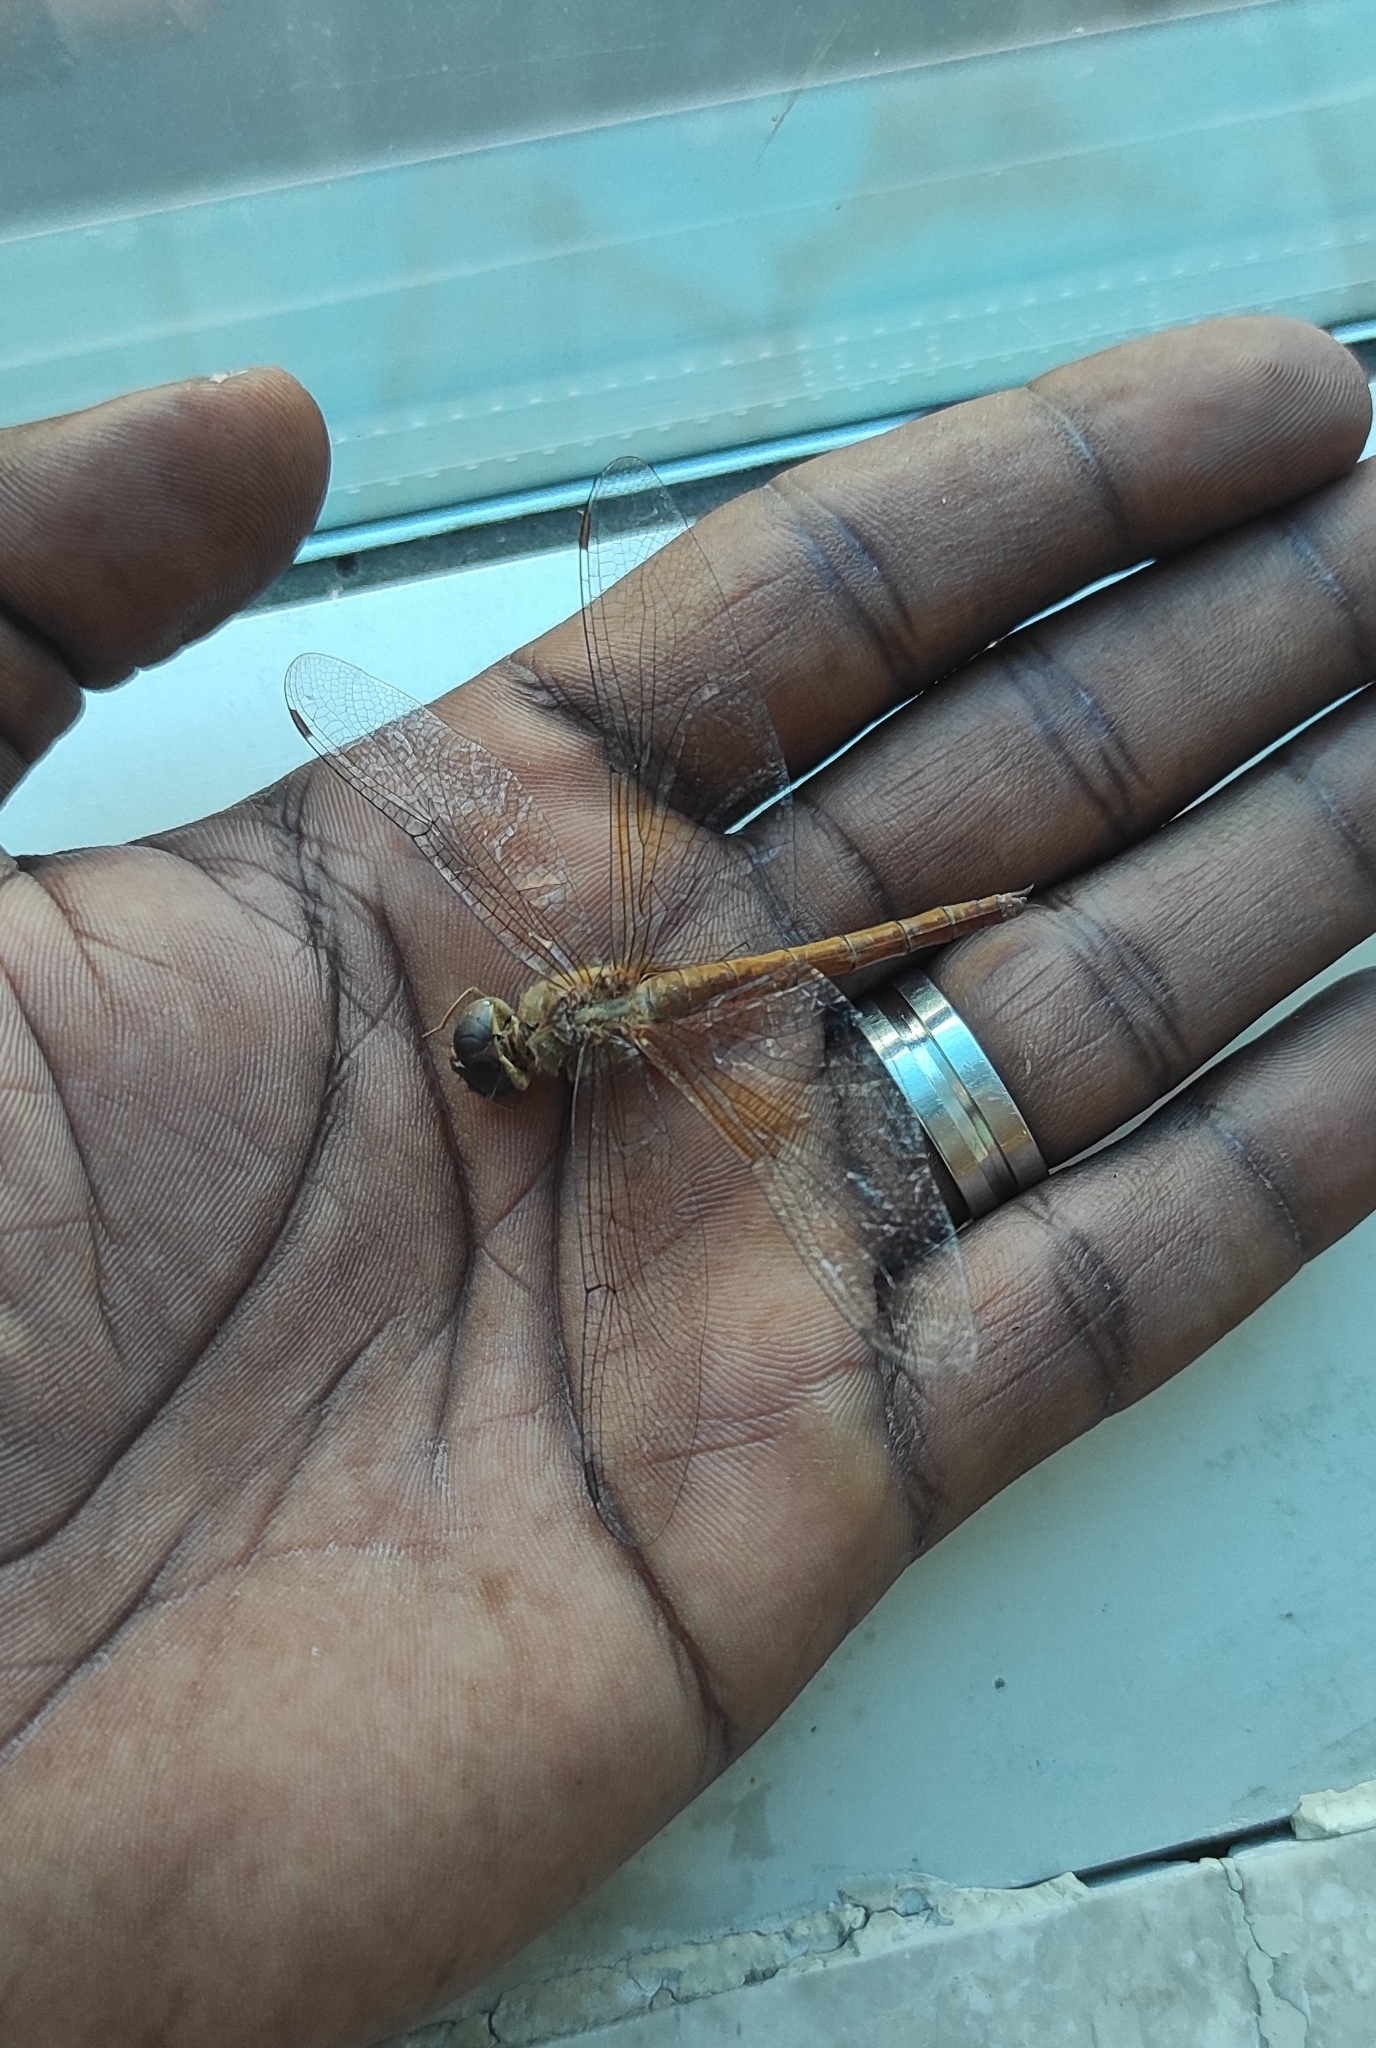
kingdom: Animalia
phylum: Arthropoda
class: Insecta
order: Odonata
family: Libellulidae
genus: Tholymis
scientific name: Tholymis tillarga
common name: Coral-tailed cloud wing
